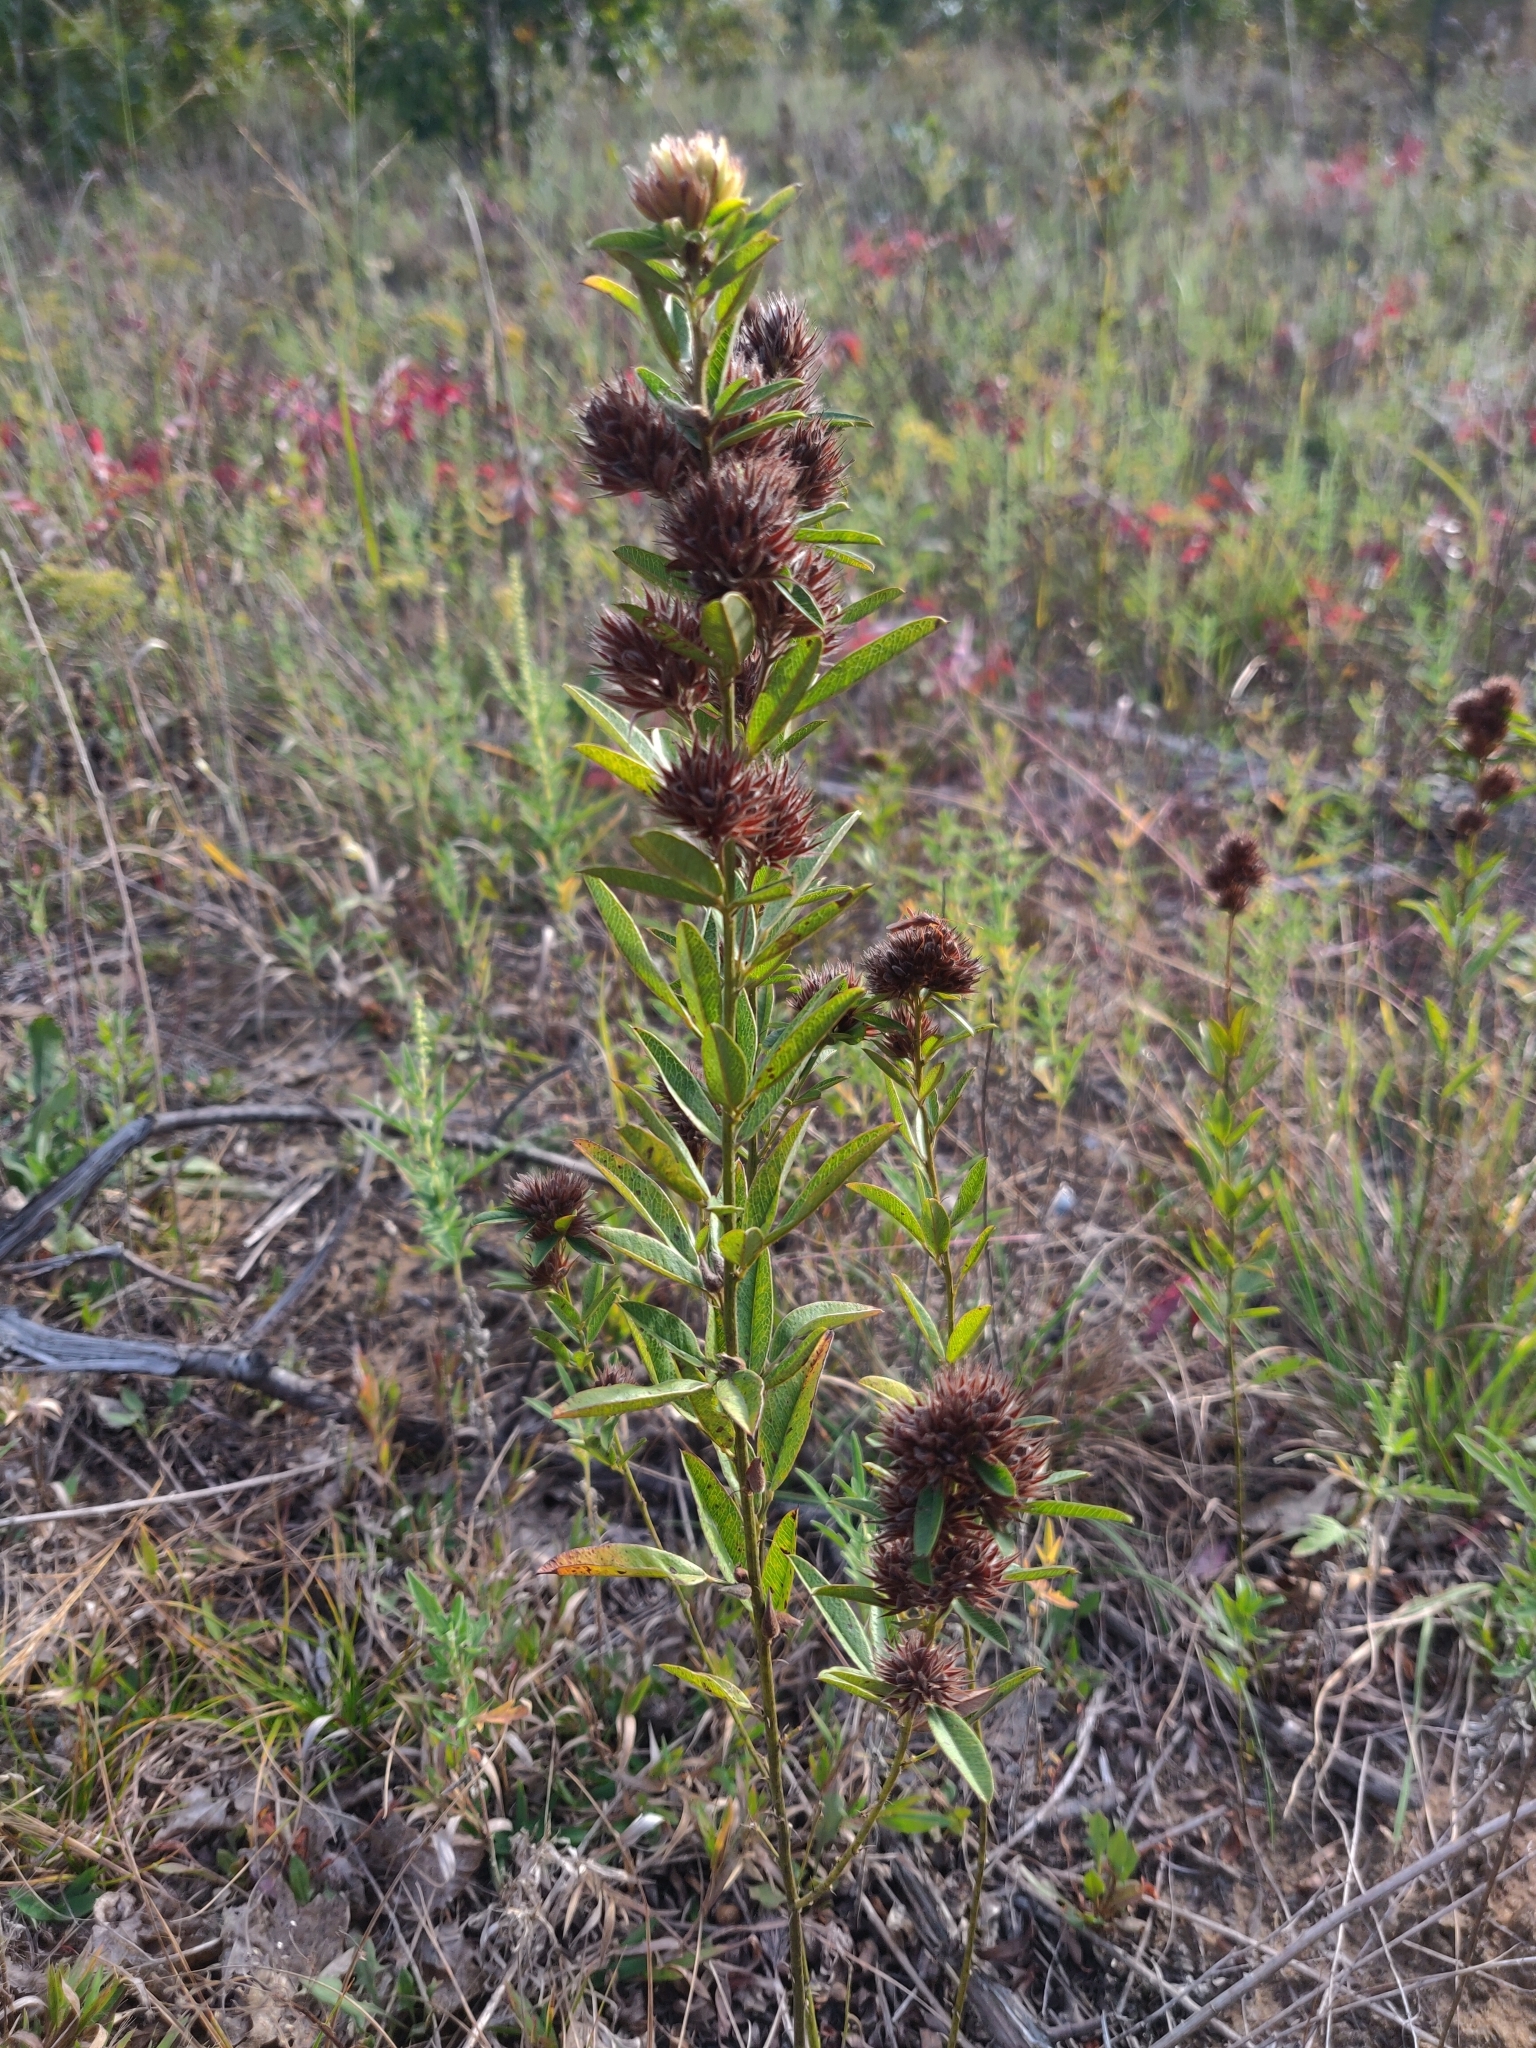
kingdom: Plantae
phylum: Tracheophyta
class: Magnoliopsida
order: Fabales
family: Fabaceae
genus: Lespedeza
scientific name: Lespedeza capitata
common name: Dusty clover
